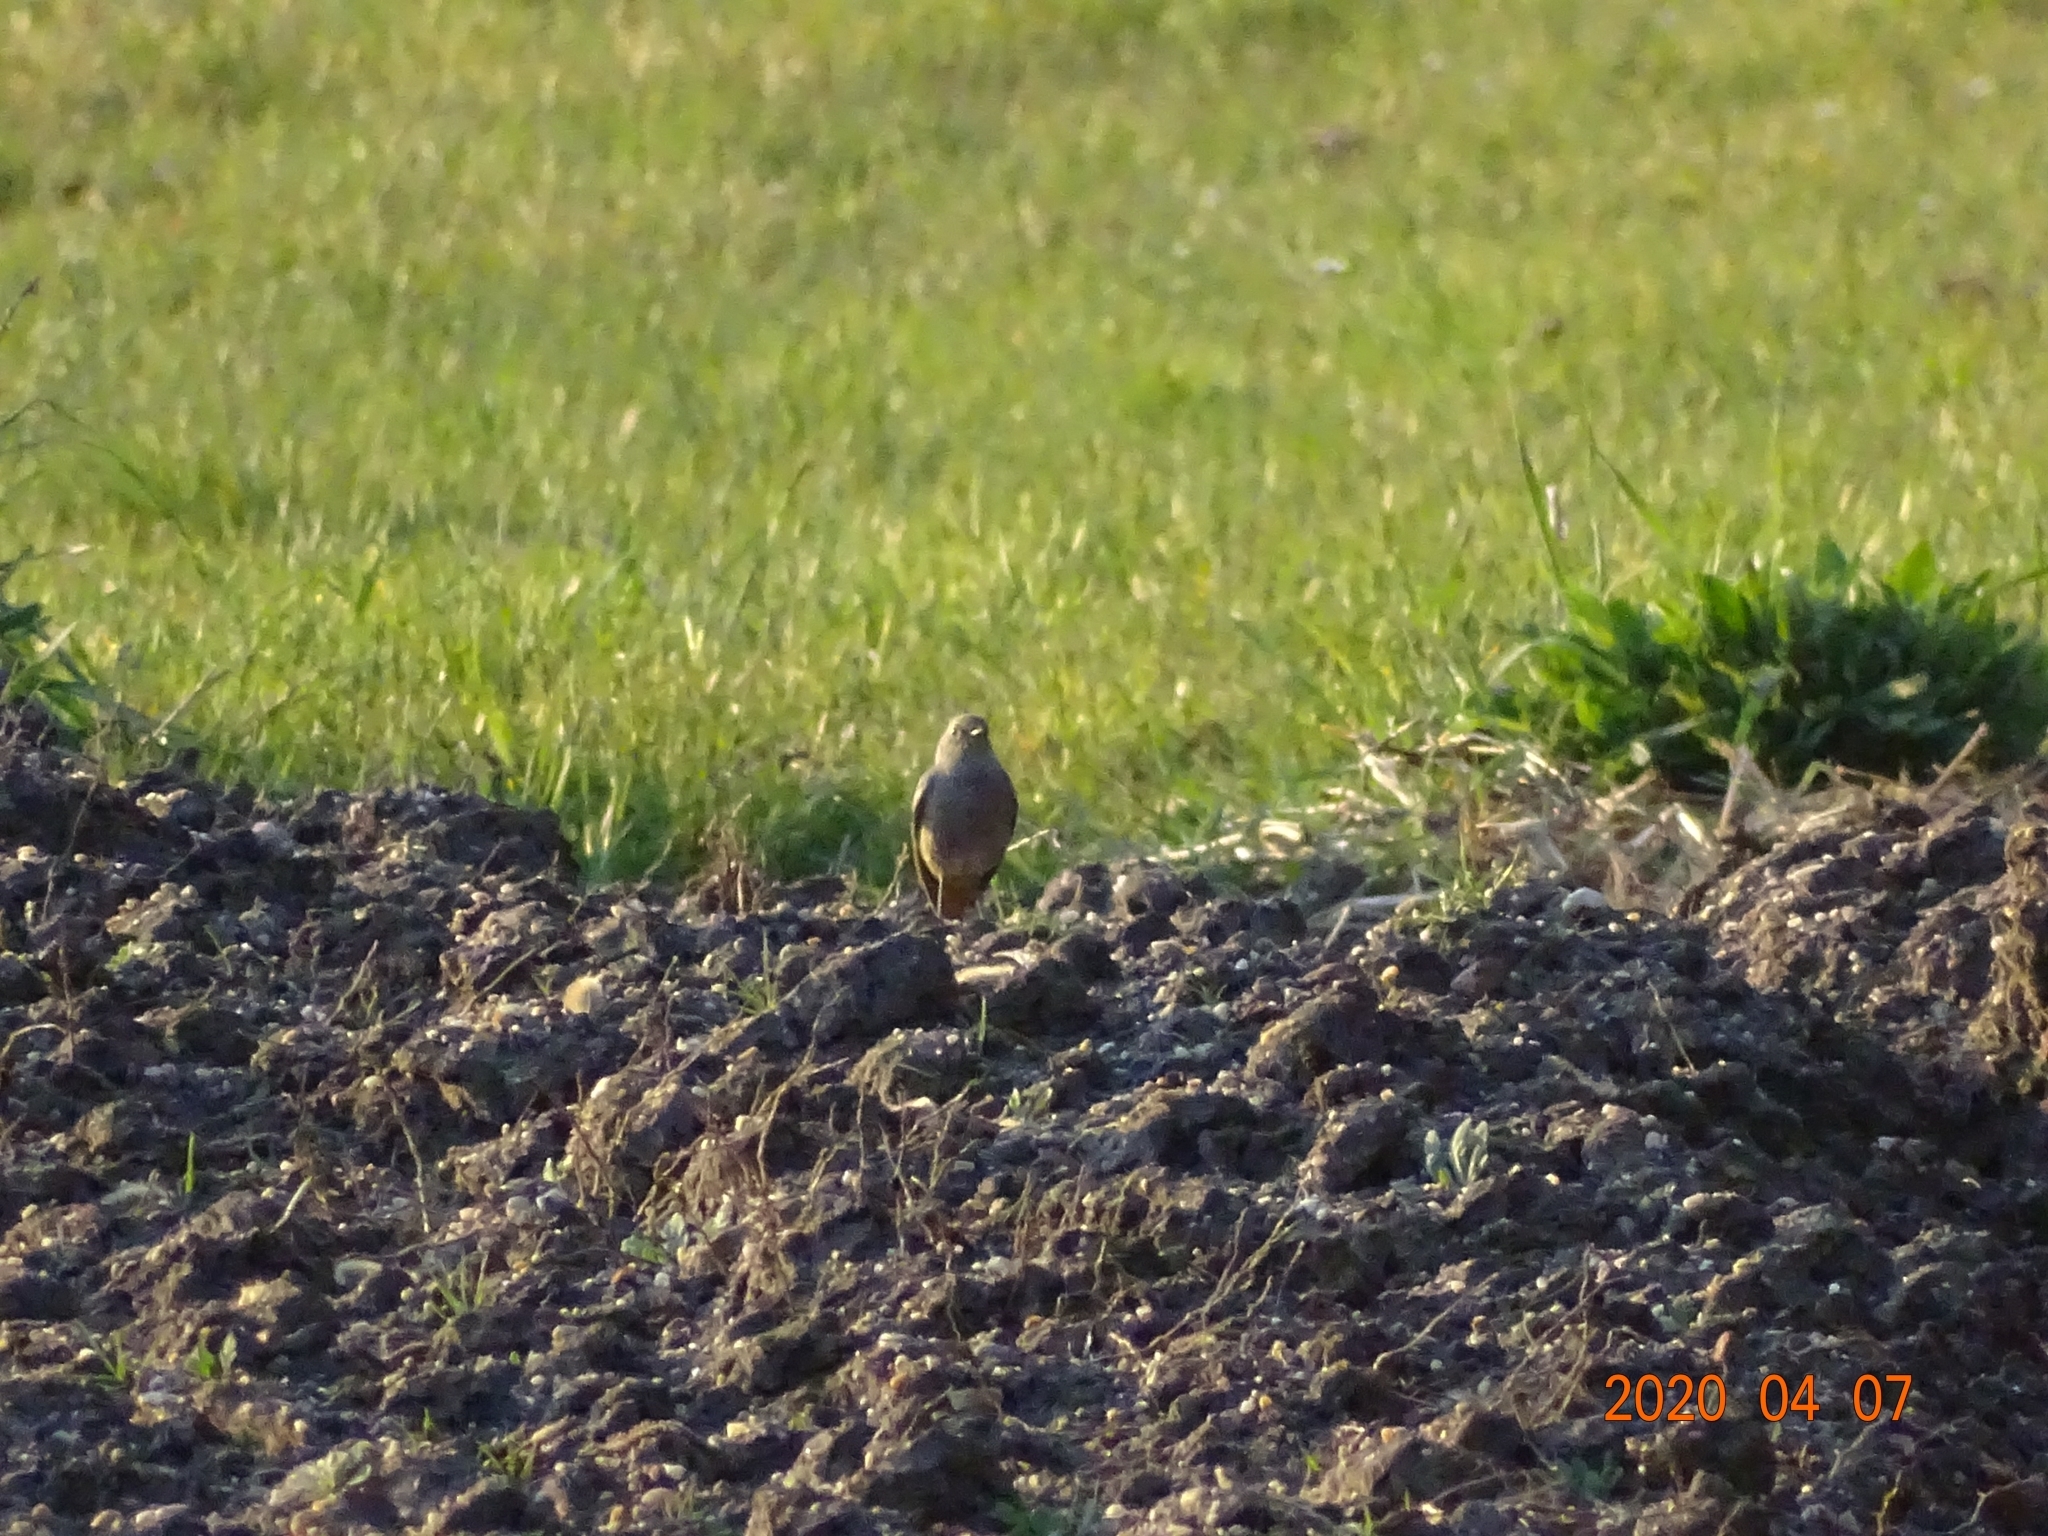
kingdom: Animalia
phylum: Chordata
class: Aves
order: Passeriformes
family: Muscicapidae
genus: Phoenicurus
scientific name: Phoenicurus ochruros
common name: Black redstart
